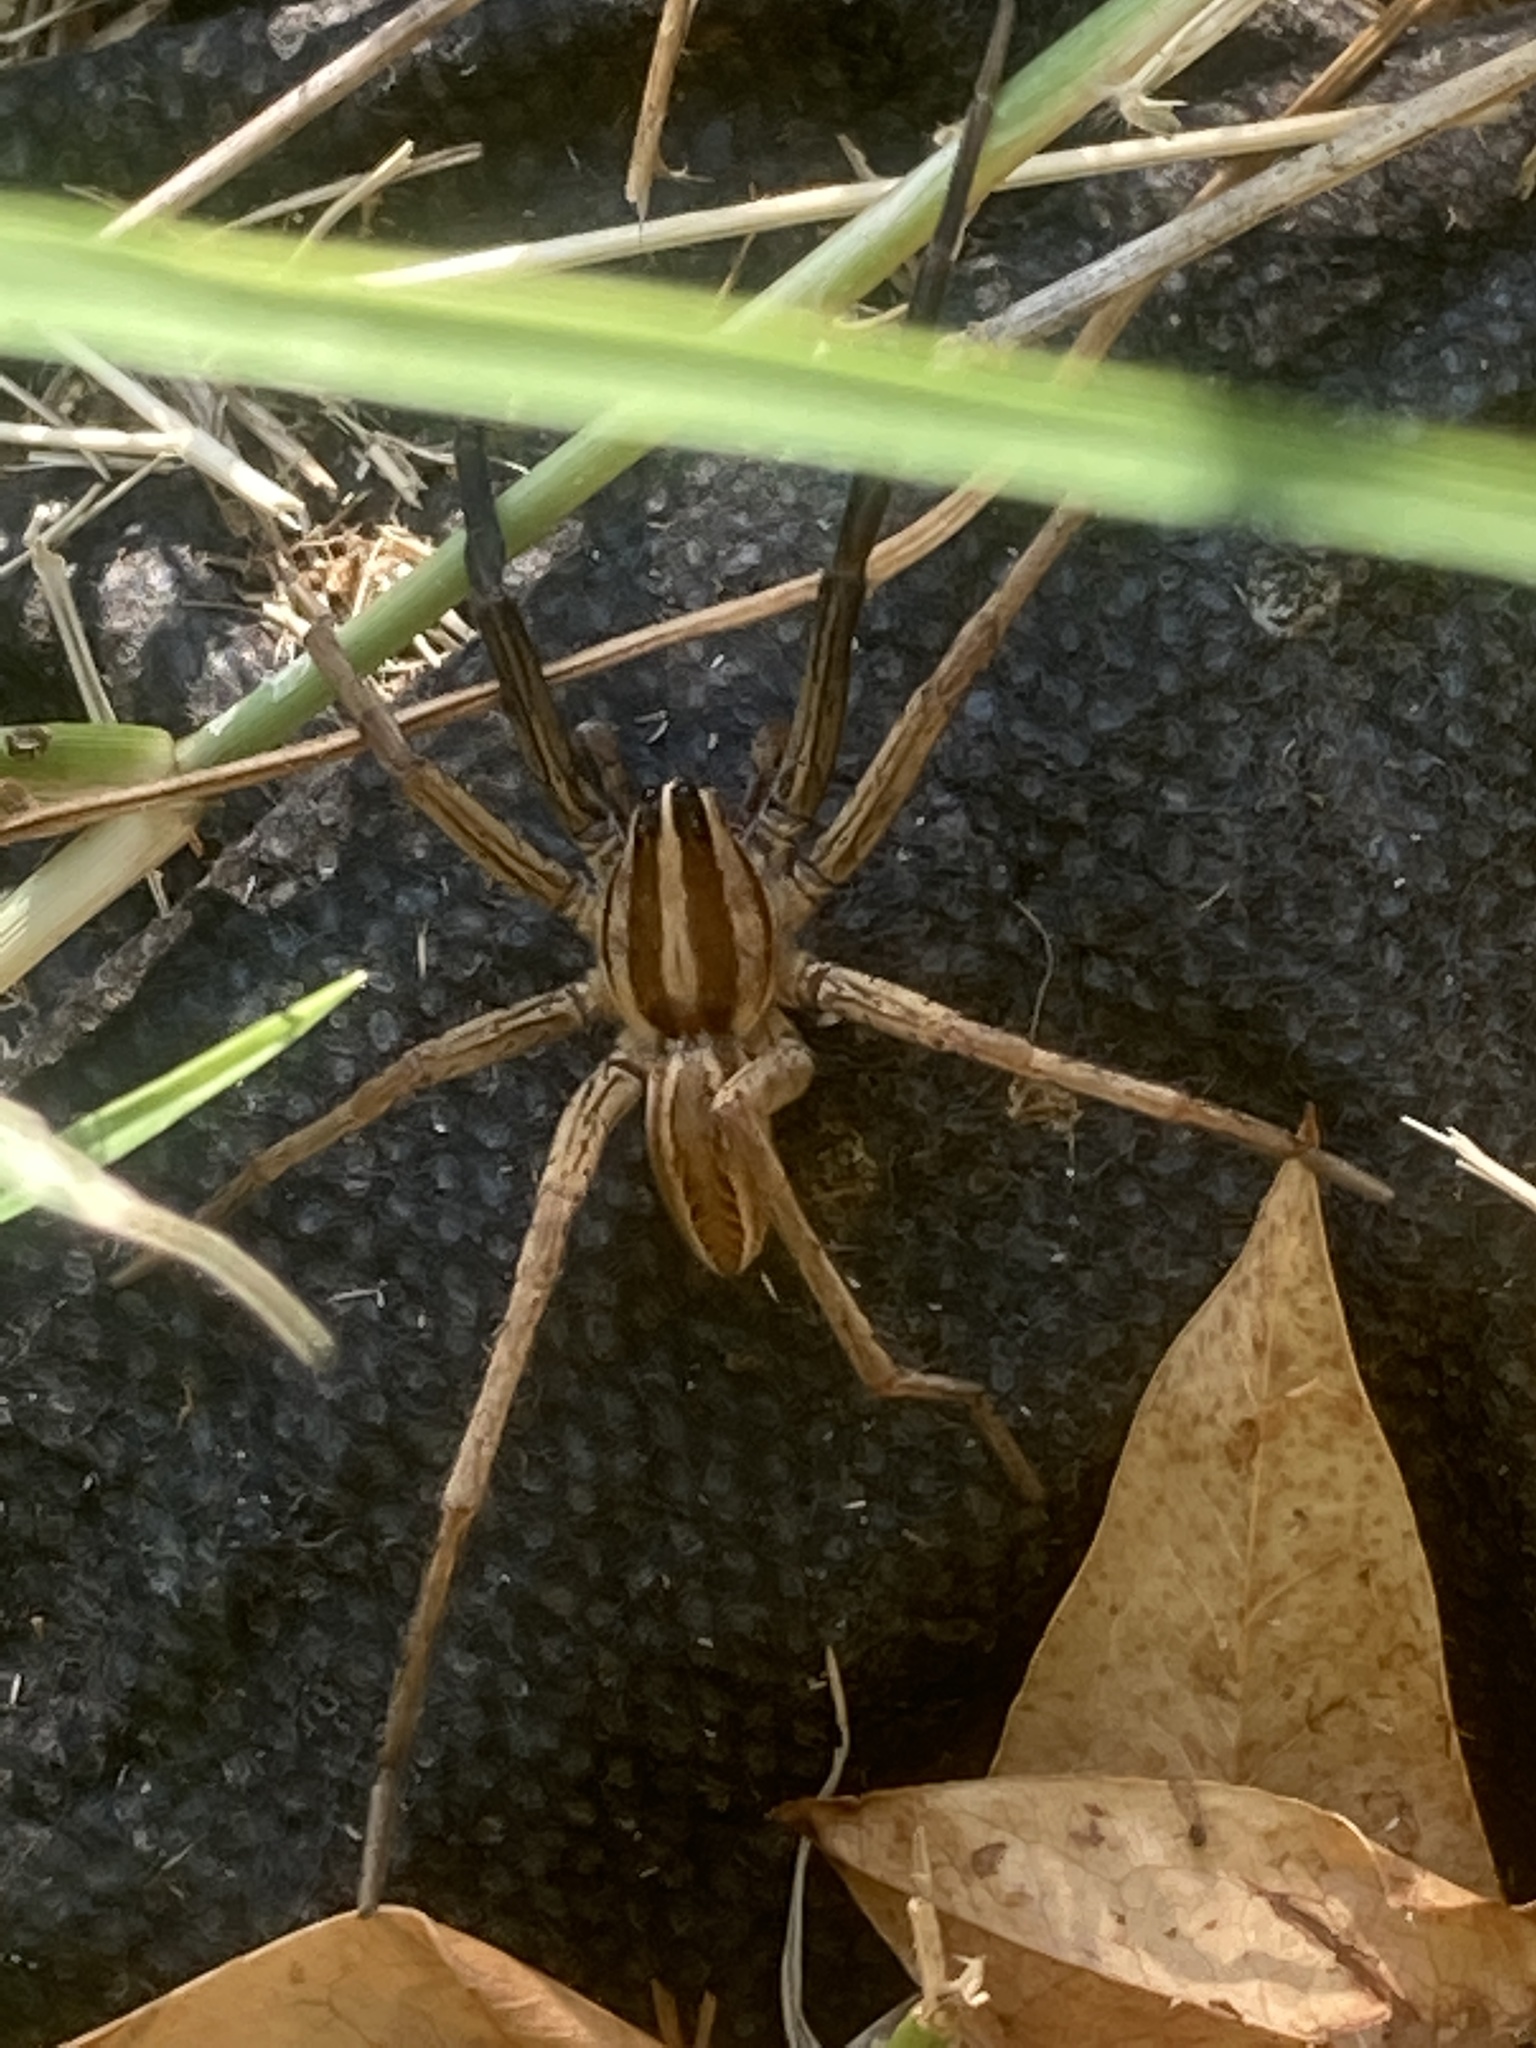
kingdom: Animalia
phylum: Arthropoda
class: Arachnida
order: Araneae
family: Lycosidae
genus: Rabidosa
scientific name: Rabidosa rabida
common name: Rabid wolf spider
